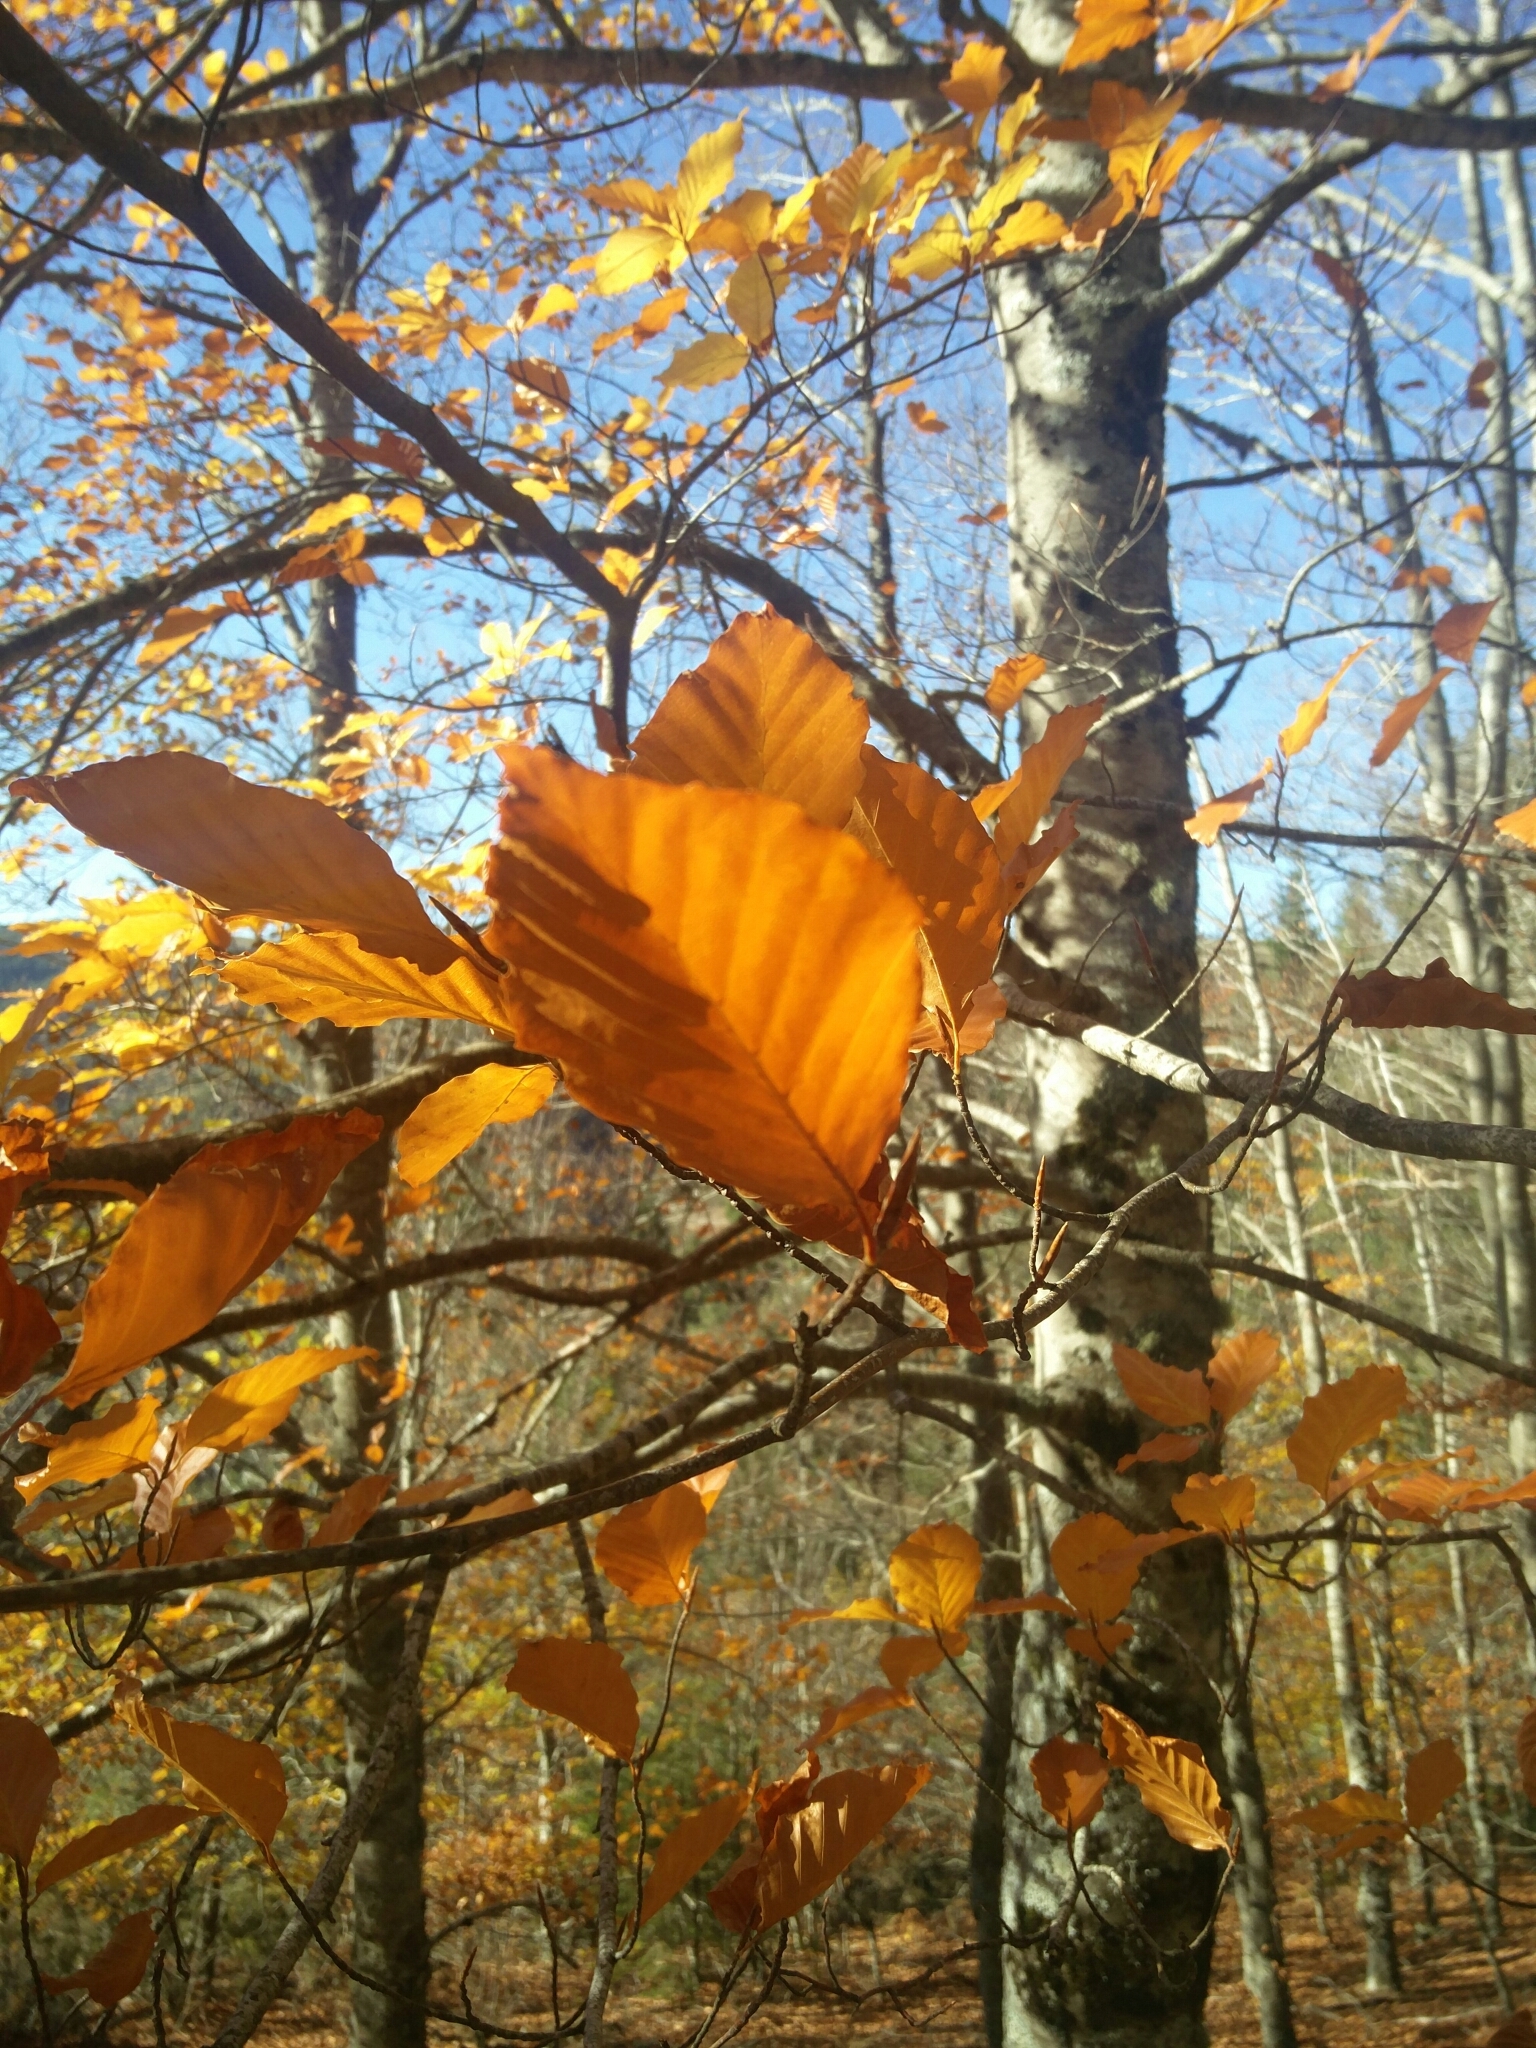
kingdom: Plantae
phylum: Tracheophyta
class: Magnoliopsida
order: Fagales
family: Fagaceae
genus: Fagus
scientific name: Fagus sylvatica
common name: Beech
